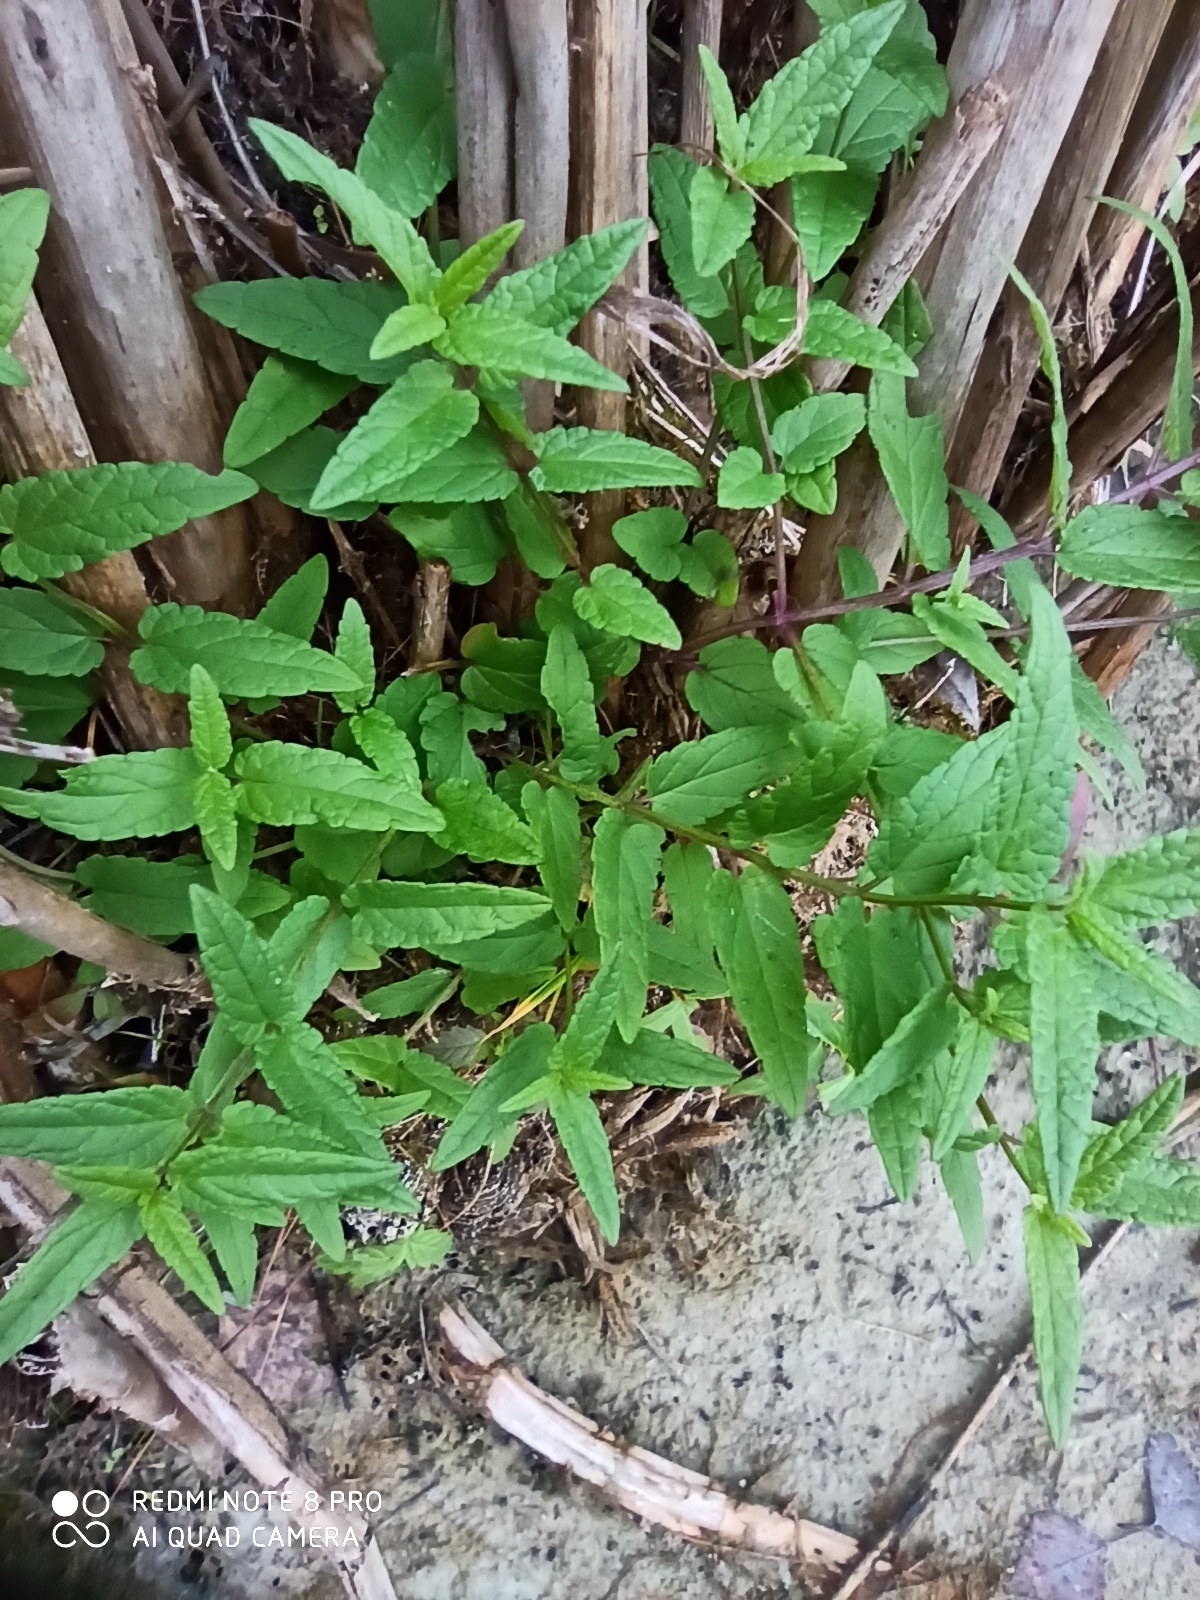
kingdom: Plantae
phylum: Tracheophyta
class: Magnoliopsida
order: Lamiales
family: Lamiaceae
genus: Scutellaria
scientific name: Scutellaria galericulata
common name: Skullcap
